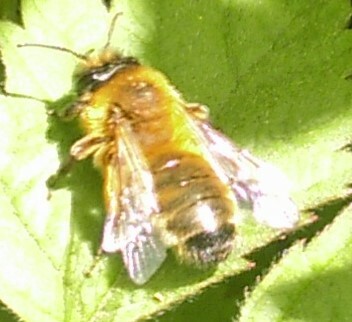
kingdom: Animalia
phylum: Arthropoda
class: Insecta
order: Hymenoptera
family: Andrenidae
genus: Andrena
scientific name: Andrena nigroaenea
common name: Buffish mining bee
